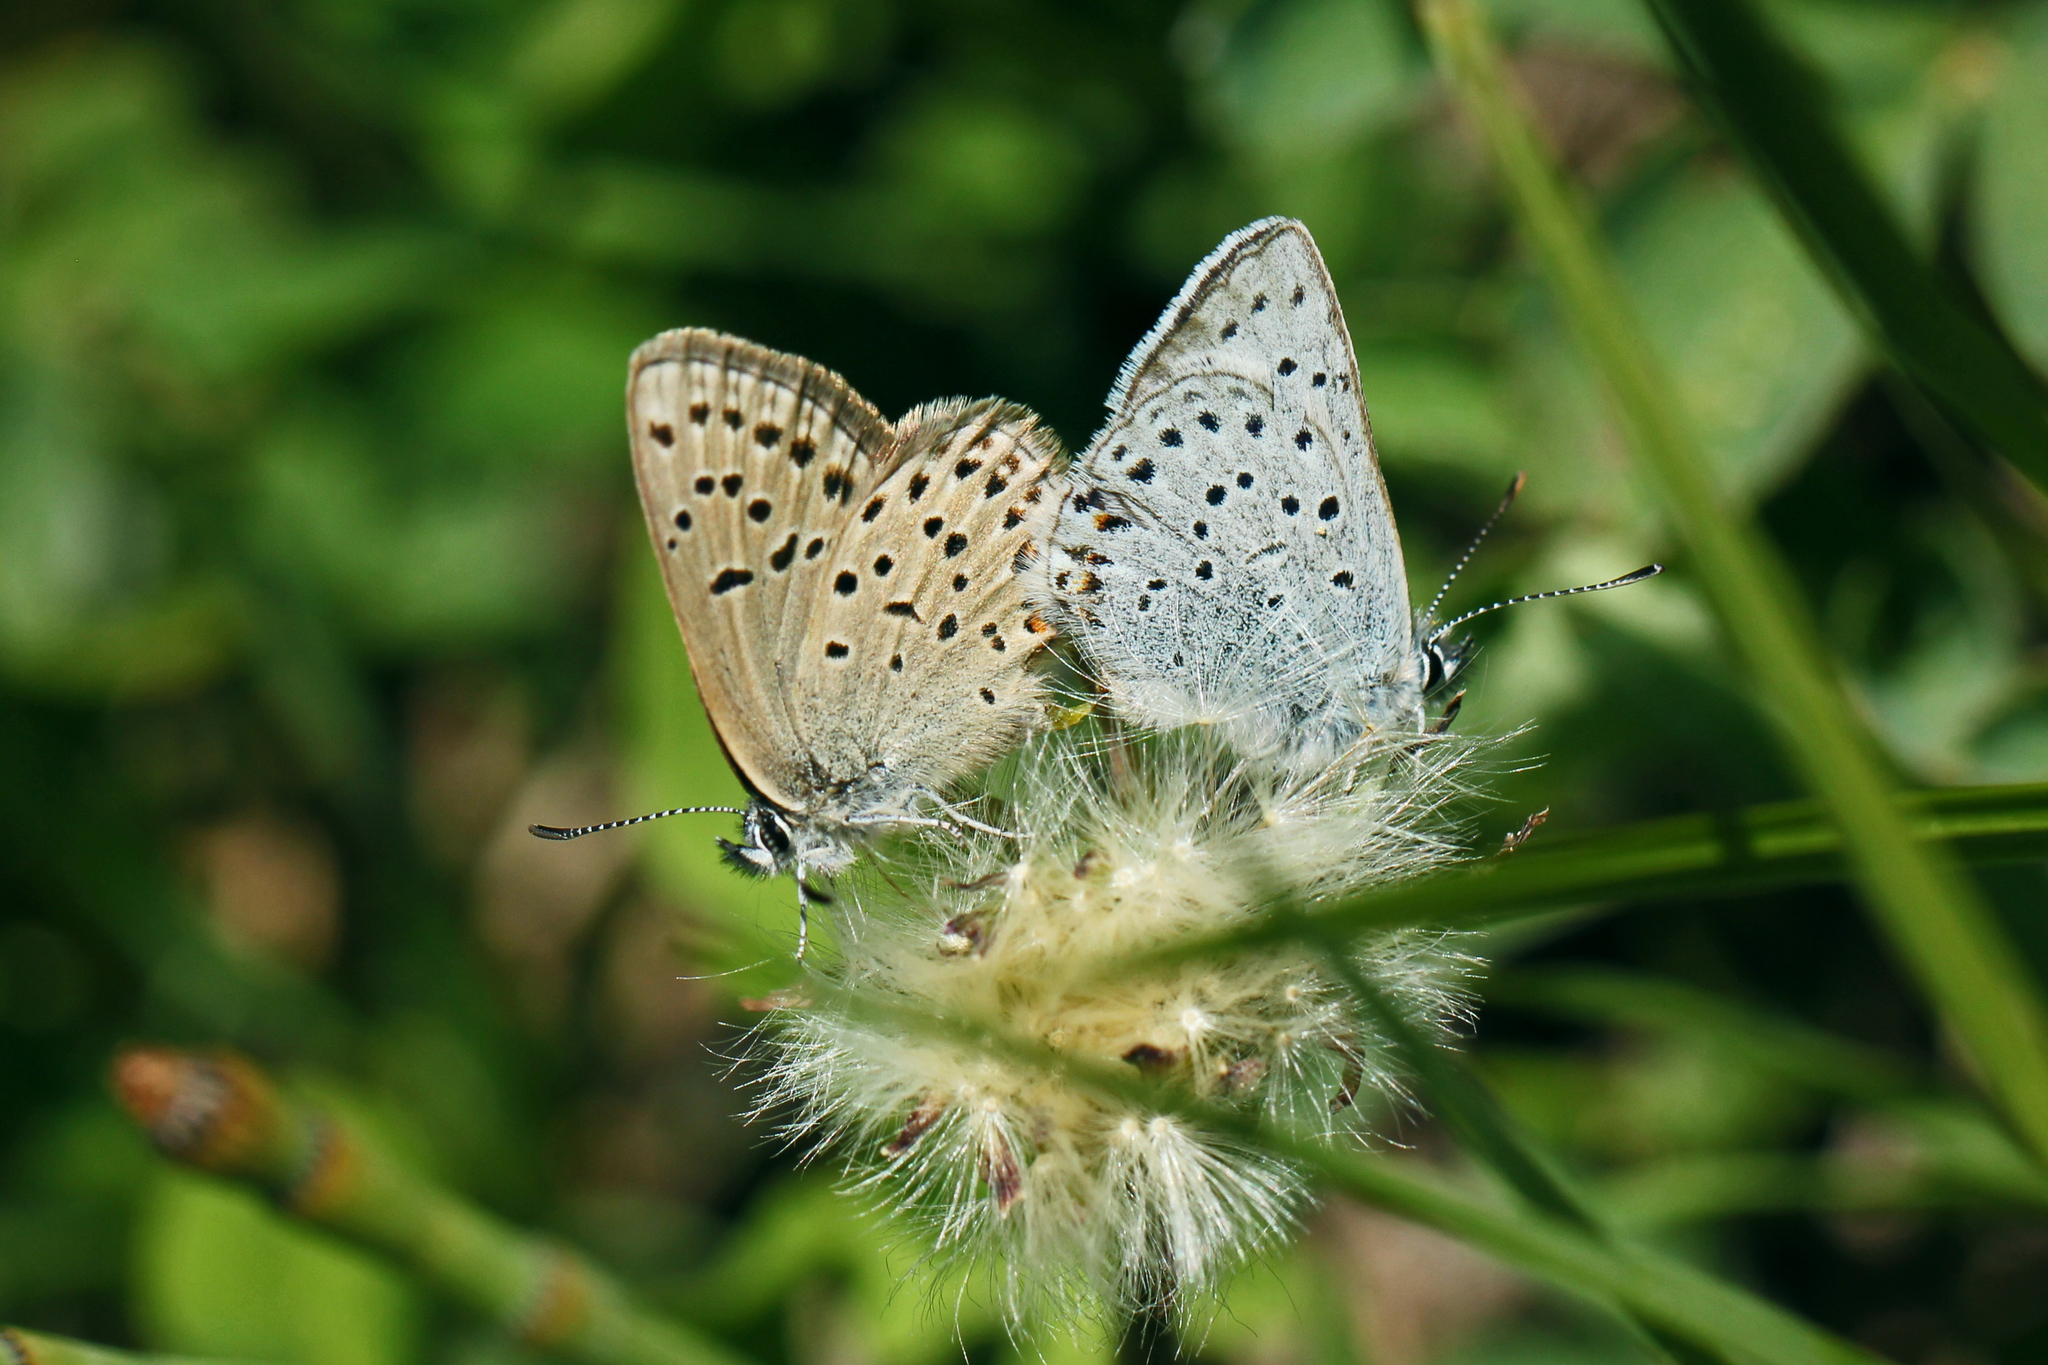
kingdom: Animalia
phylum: Arthropoda
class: Insecta
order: Lepidoptera
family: Lycaenidae
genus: Icaricia
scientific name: Icaricia saepiolus
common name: Greenish blue
